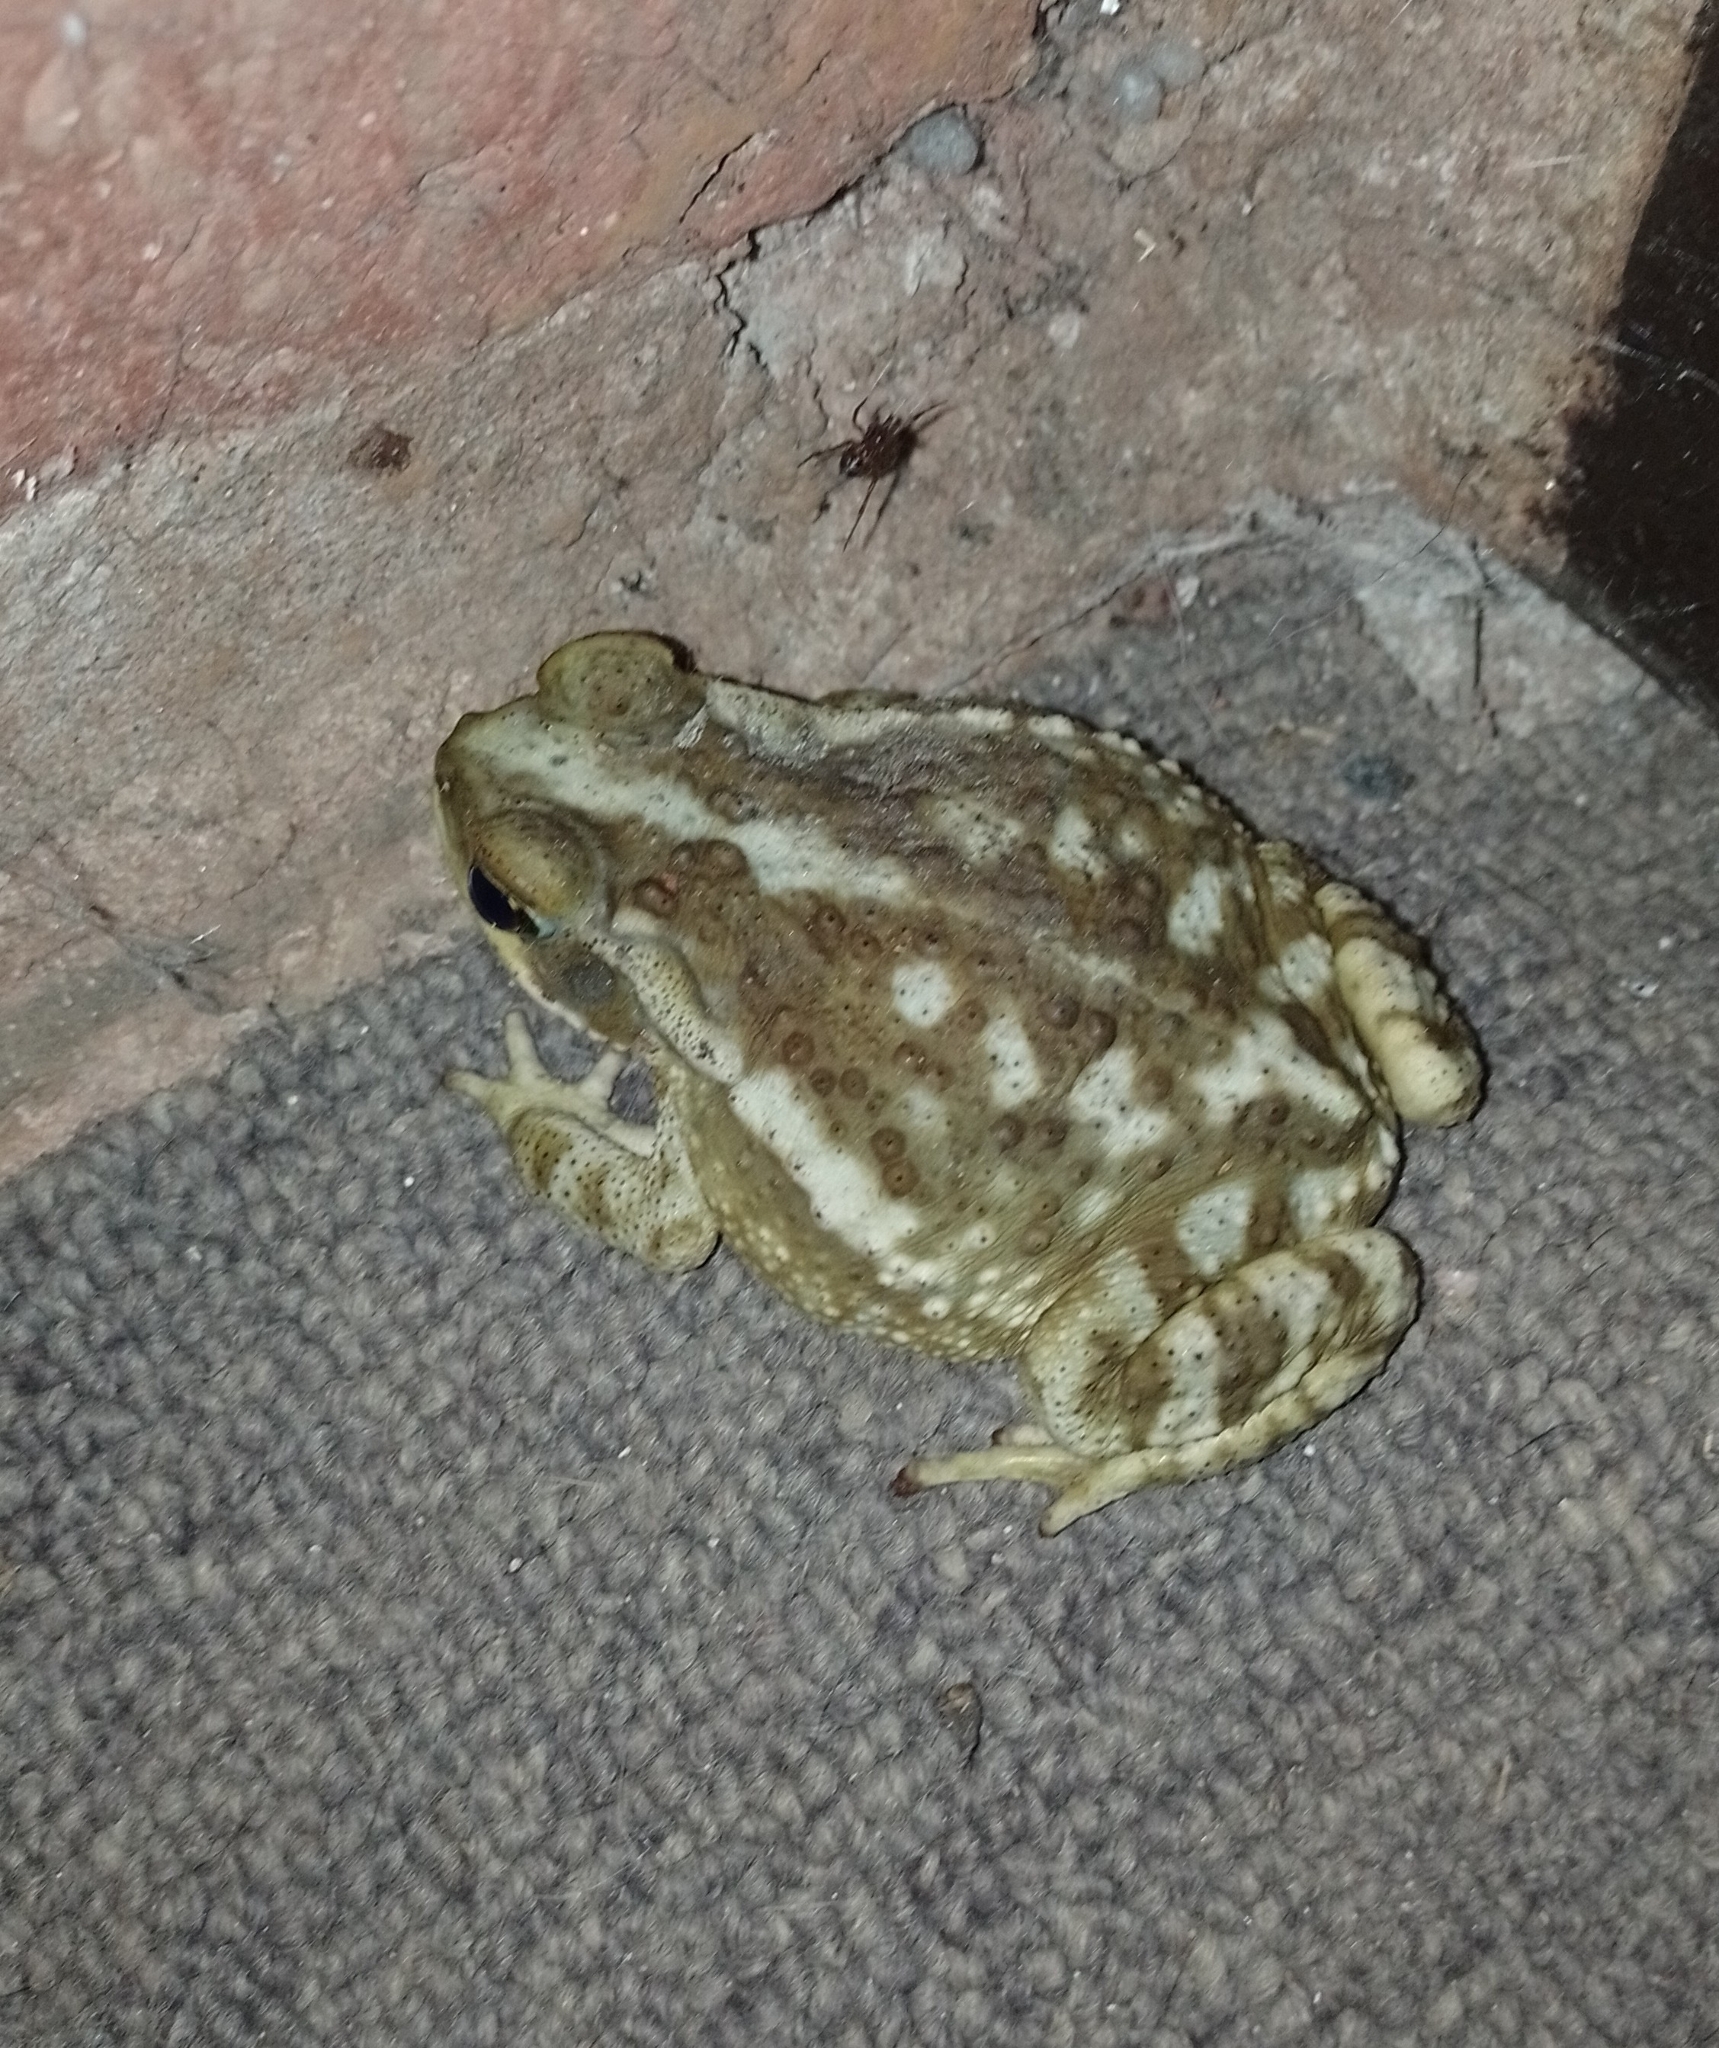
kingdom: Animalia
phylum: Chordata
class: Amphibia
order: Anura
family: Bufonidae
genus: Rhinella
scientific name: Rhinella arenarum
